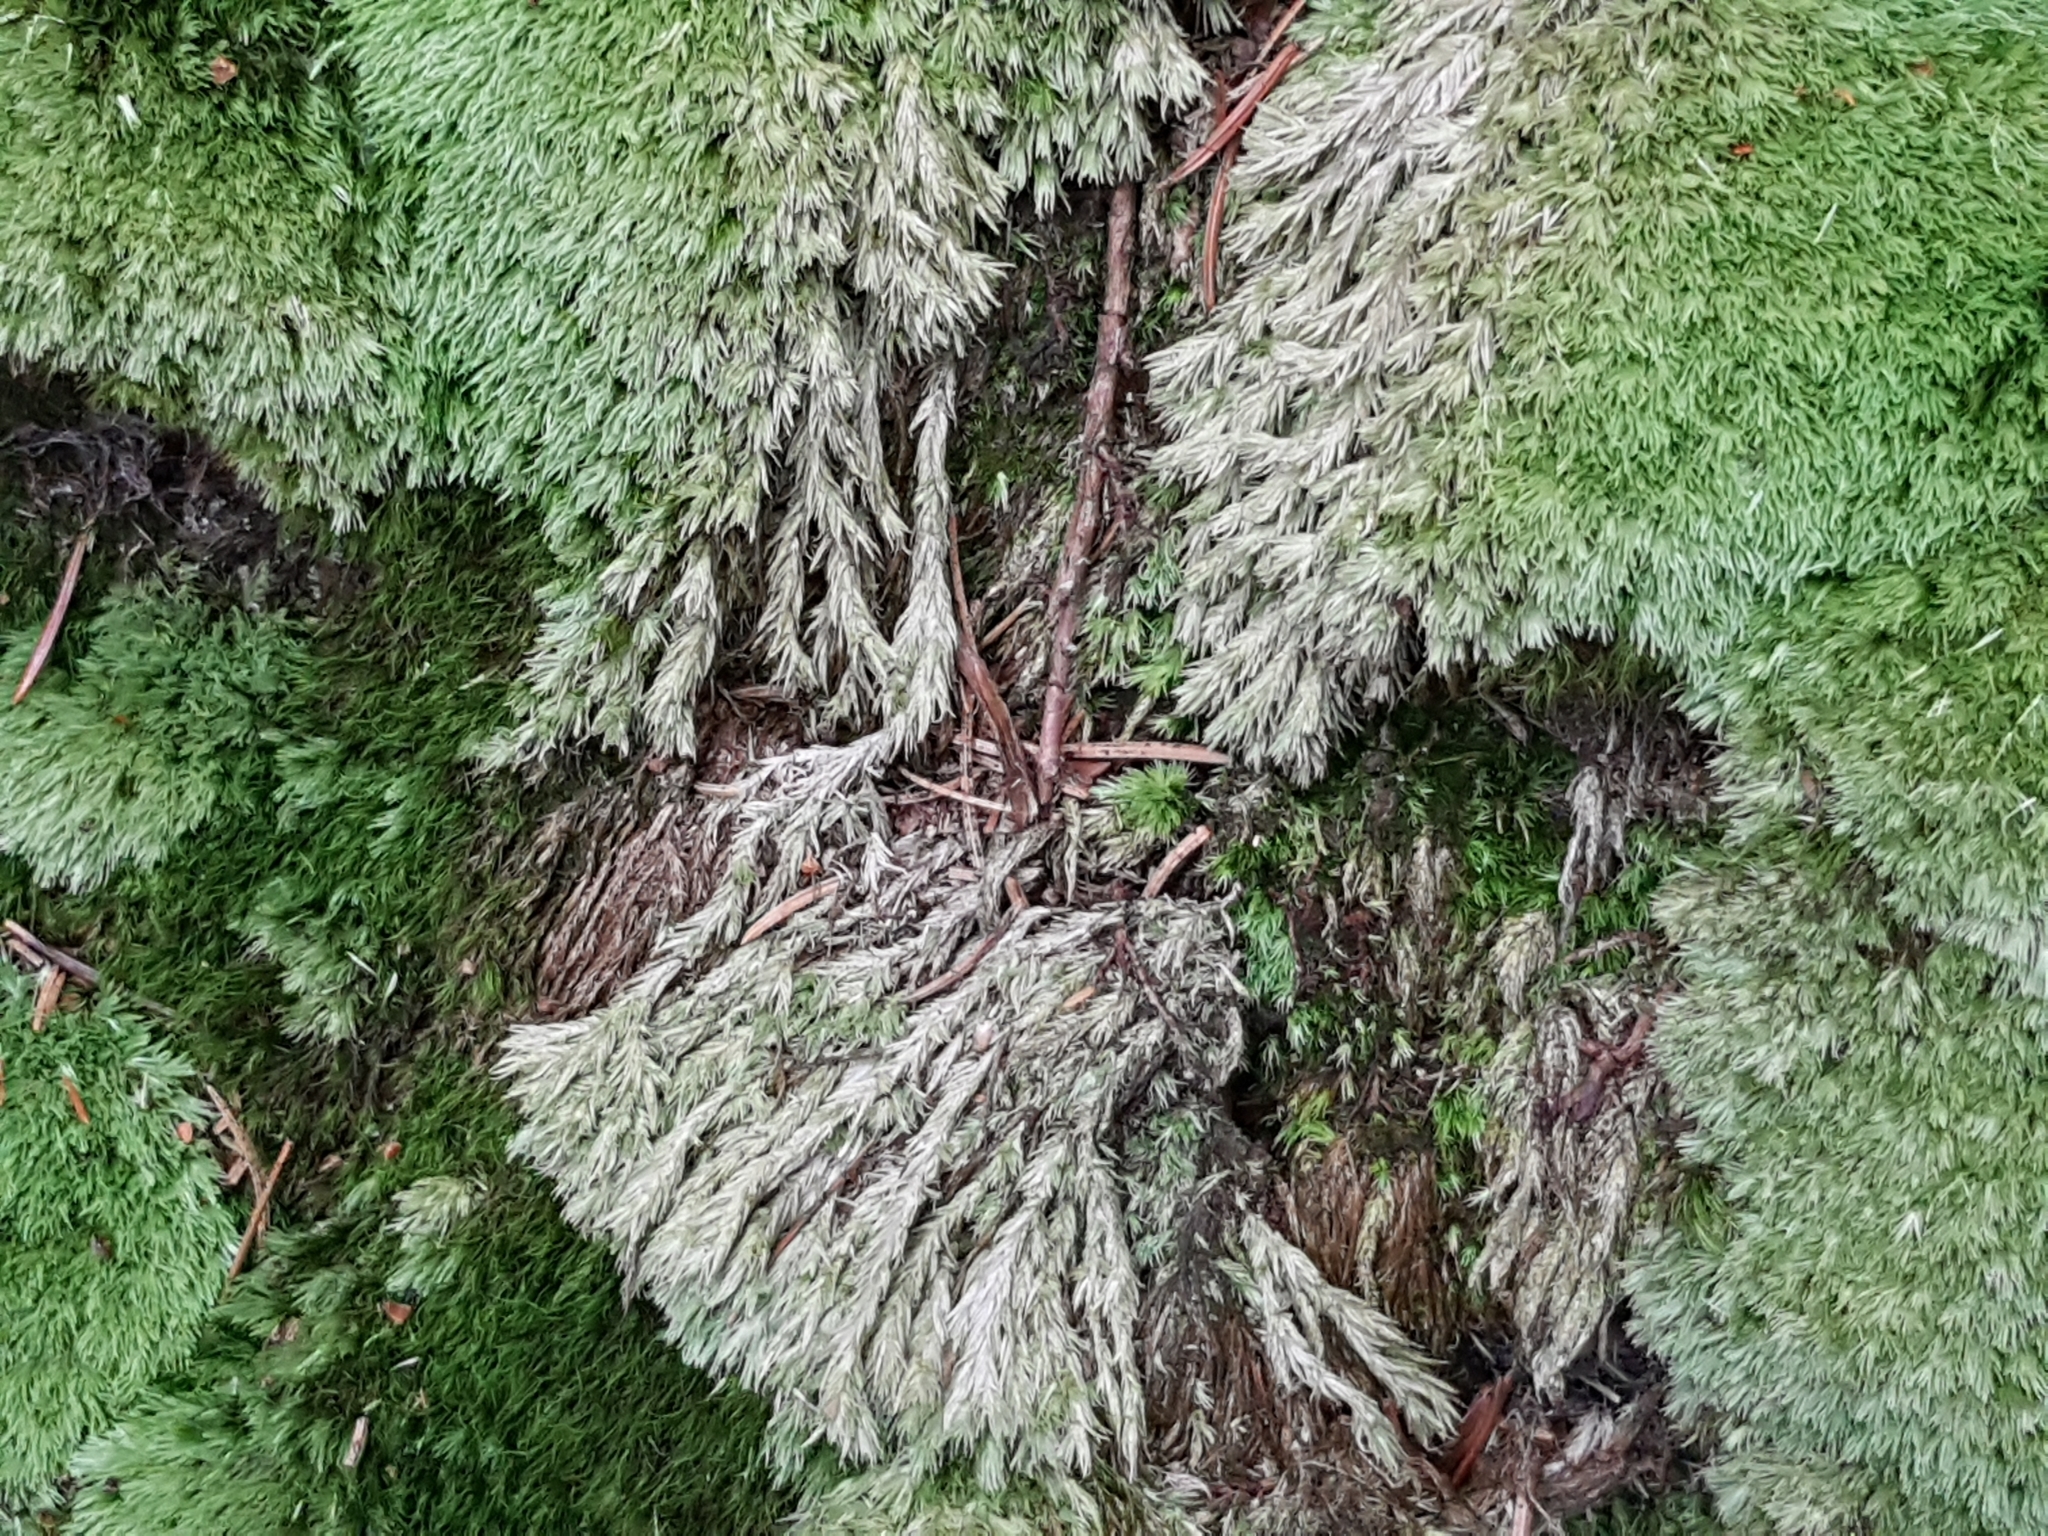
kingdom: Plantae
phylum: Bryophyta
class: Bryopsida
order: Dicranales
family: Leucobryaceae
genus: Leucobryum
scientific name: Leucobryum glaucum
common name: Large white-moss
